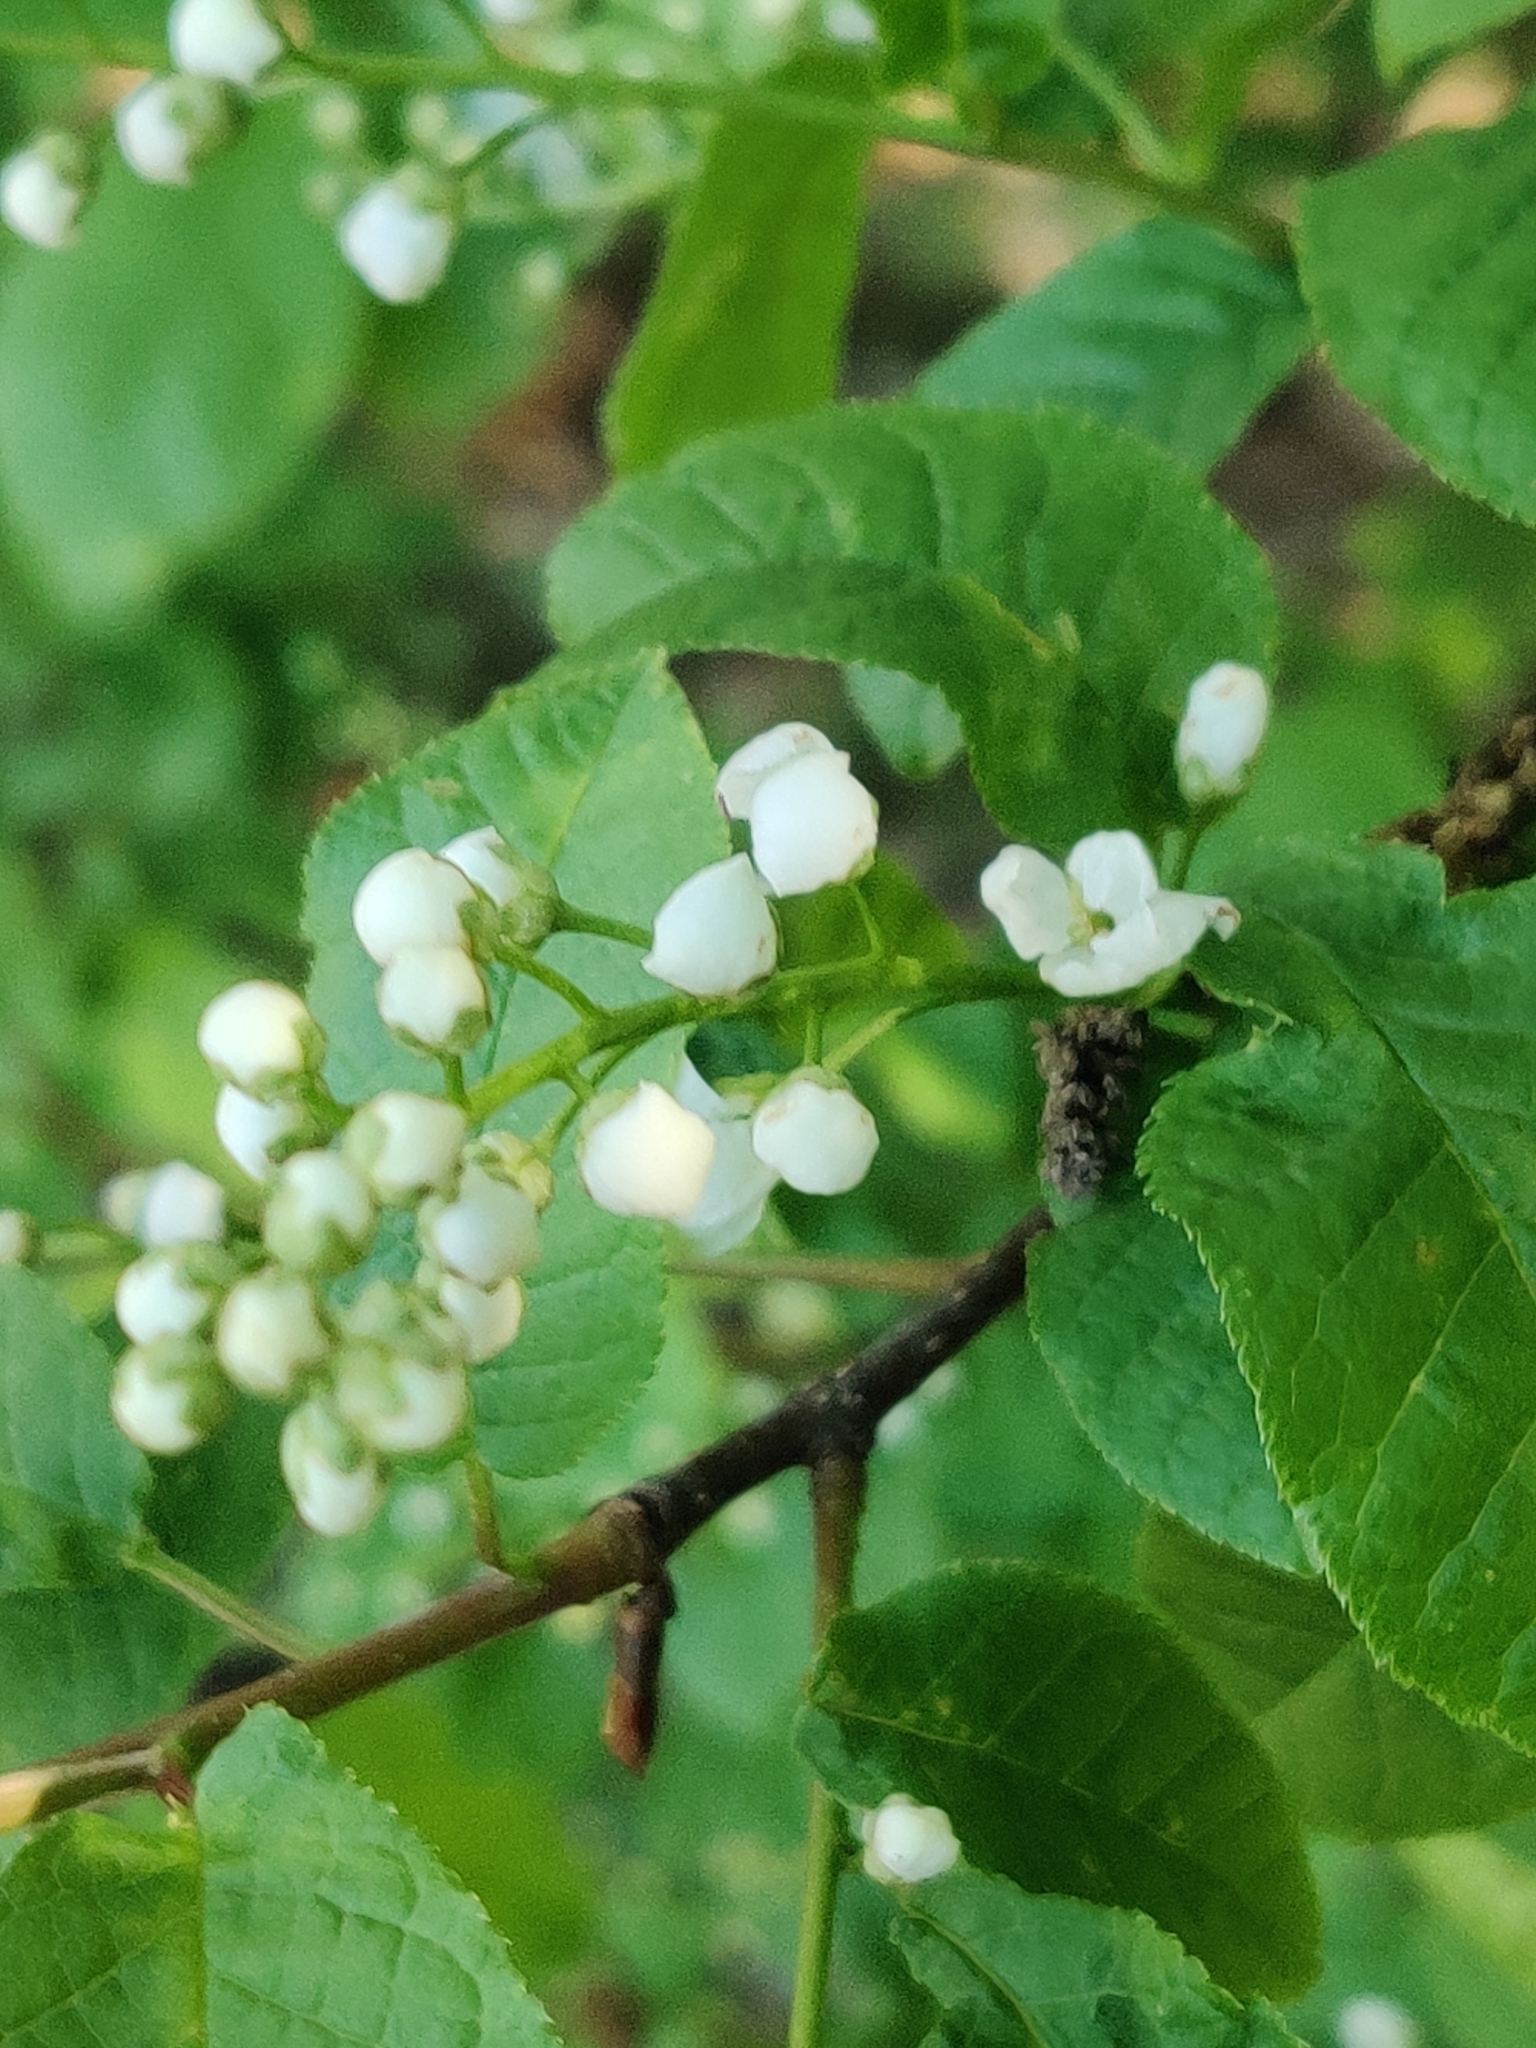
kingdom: Plantae
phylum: Tracheophyta
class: Magnoliopsida
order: Rosales
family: Rosaceae
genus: Prunus
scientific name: Prunus padus
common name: Bird cherry
